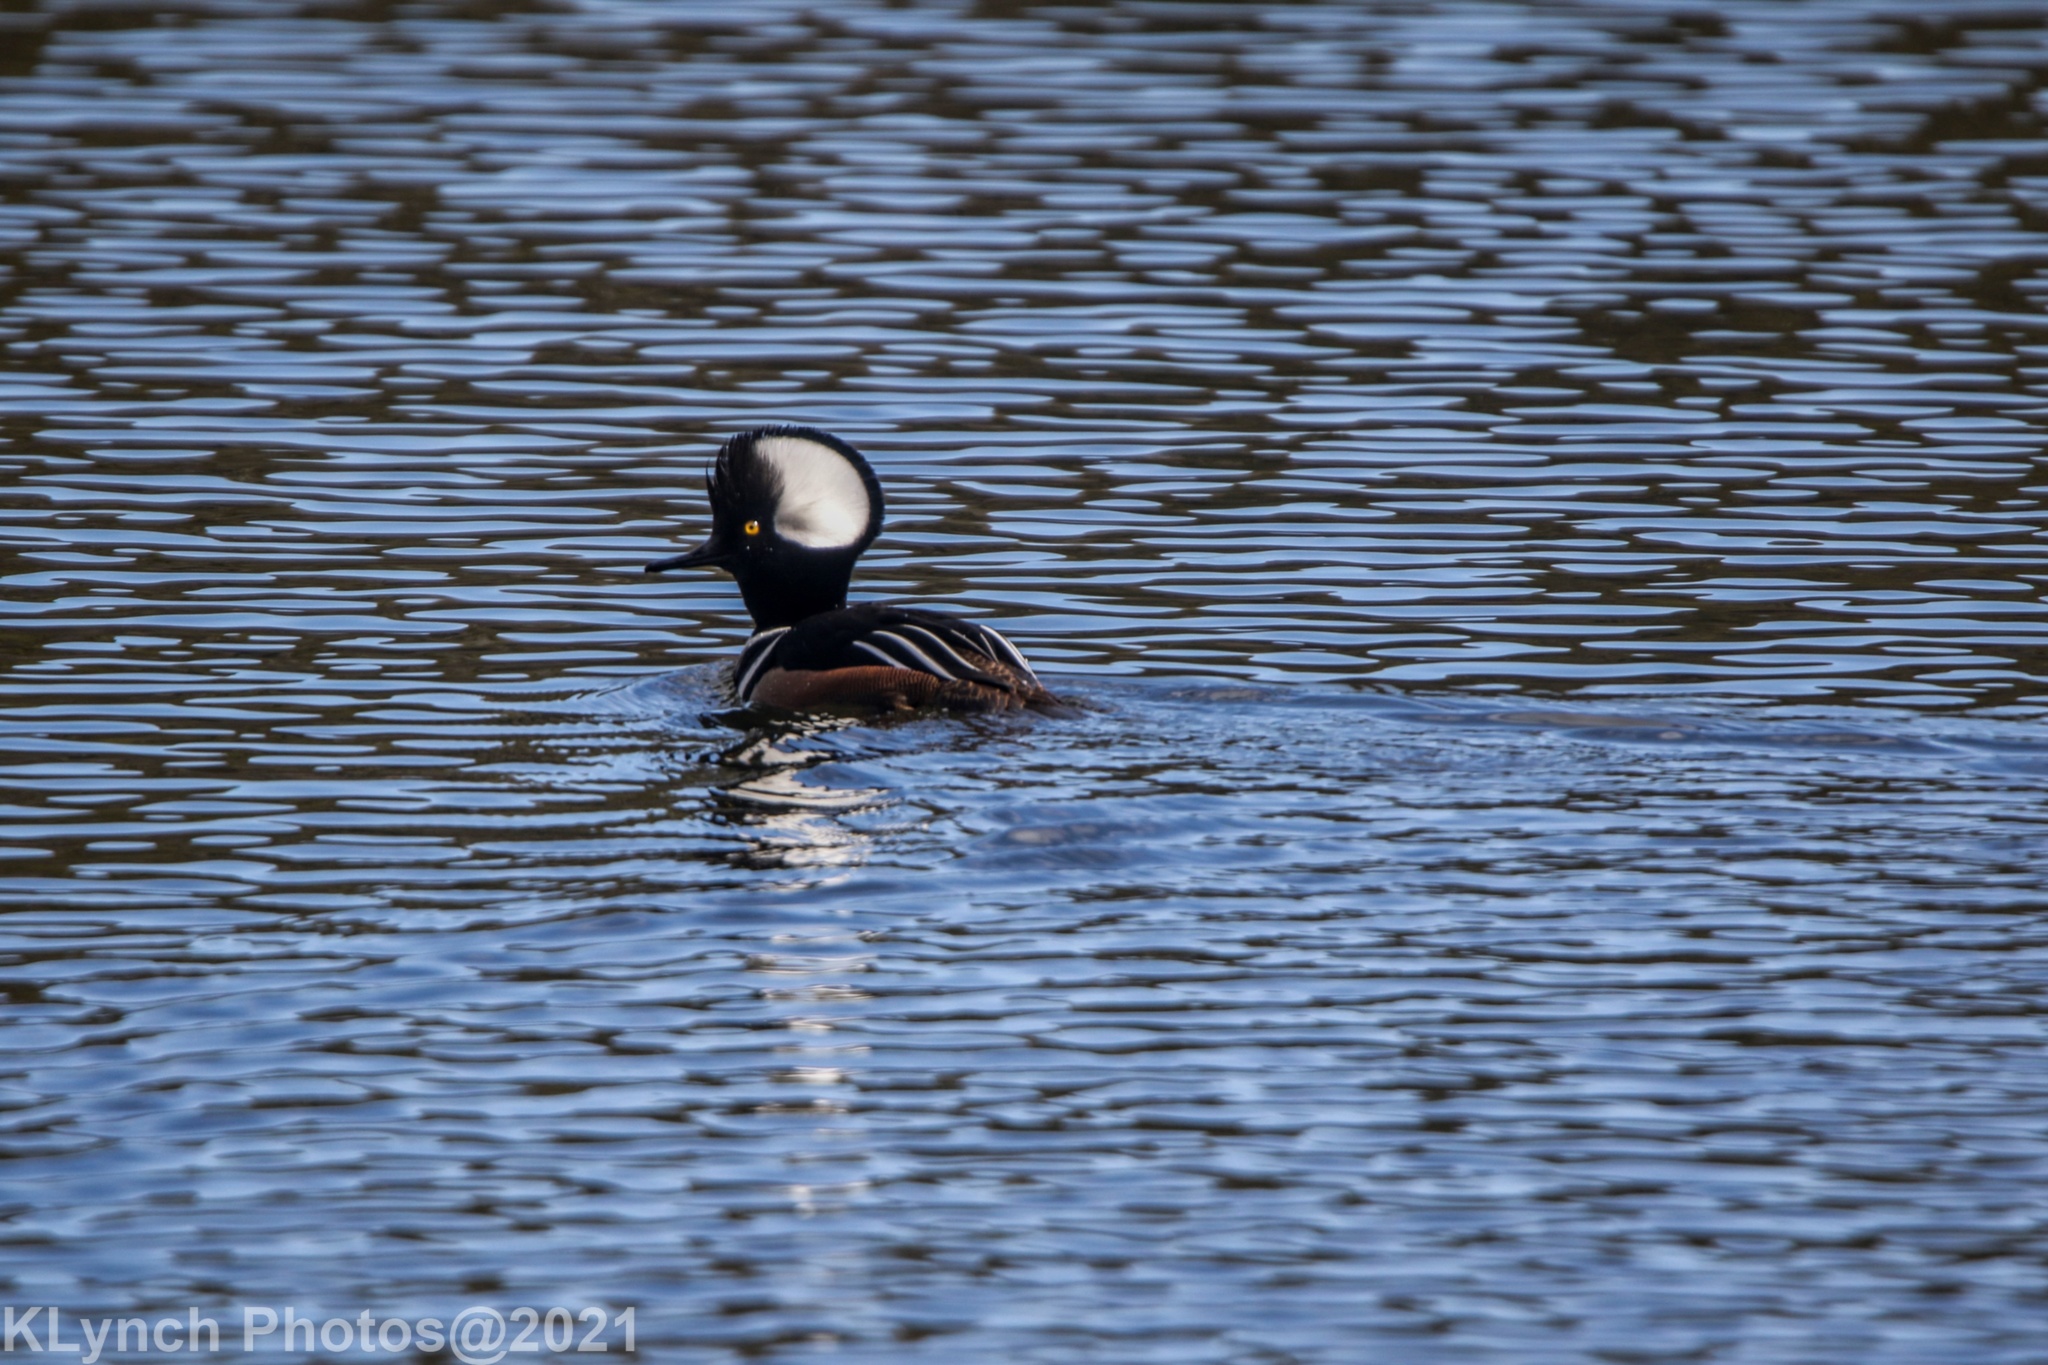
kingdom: Animalia
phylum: Chordata
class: Aves
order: Anseriformes
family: Anatidae
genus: Lophodytes
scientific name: Lophodytes cucullatus
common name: Hooded merganser
